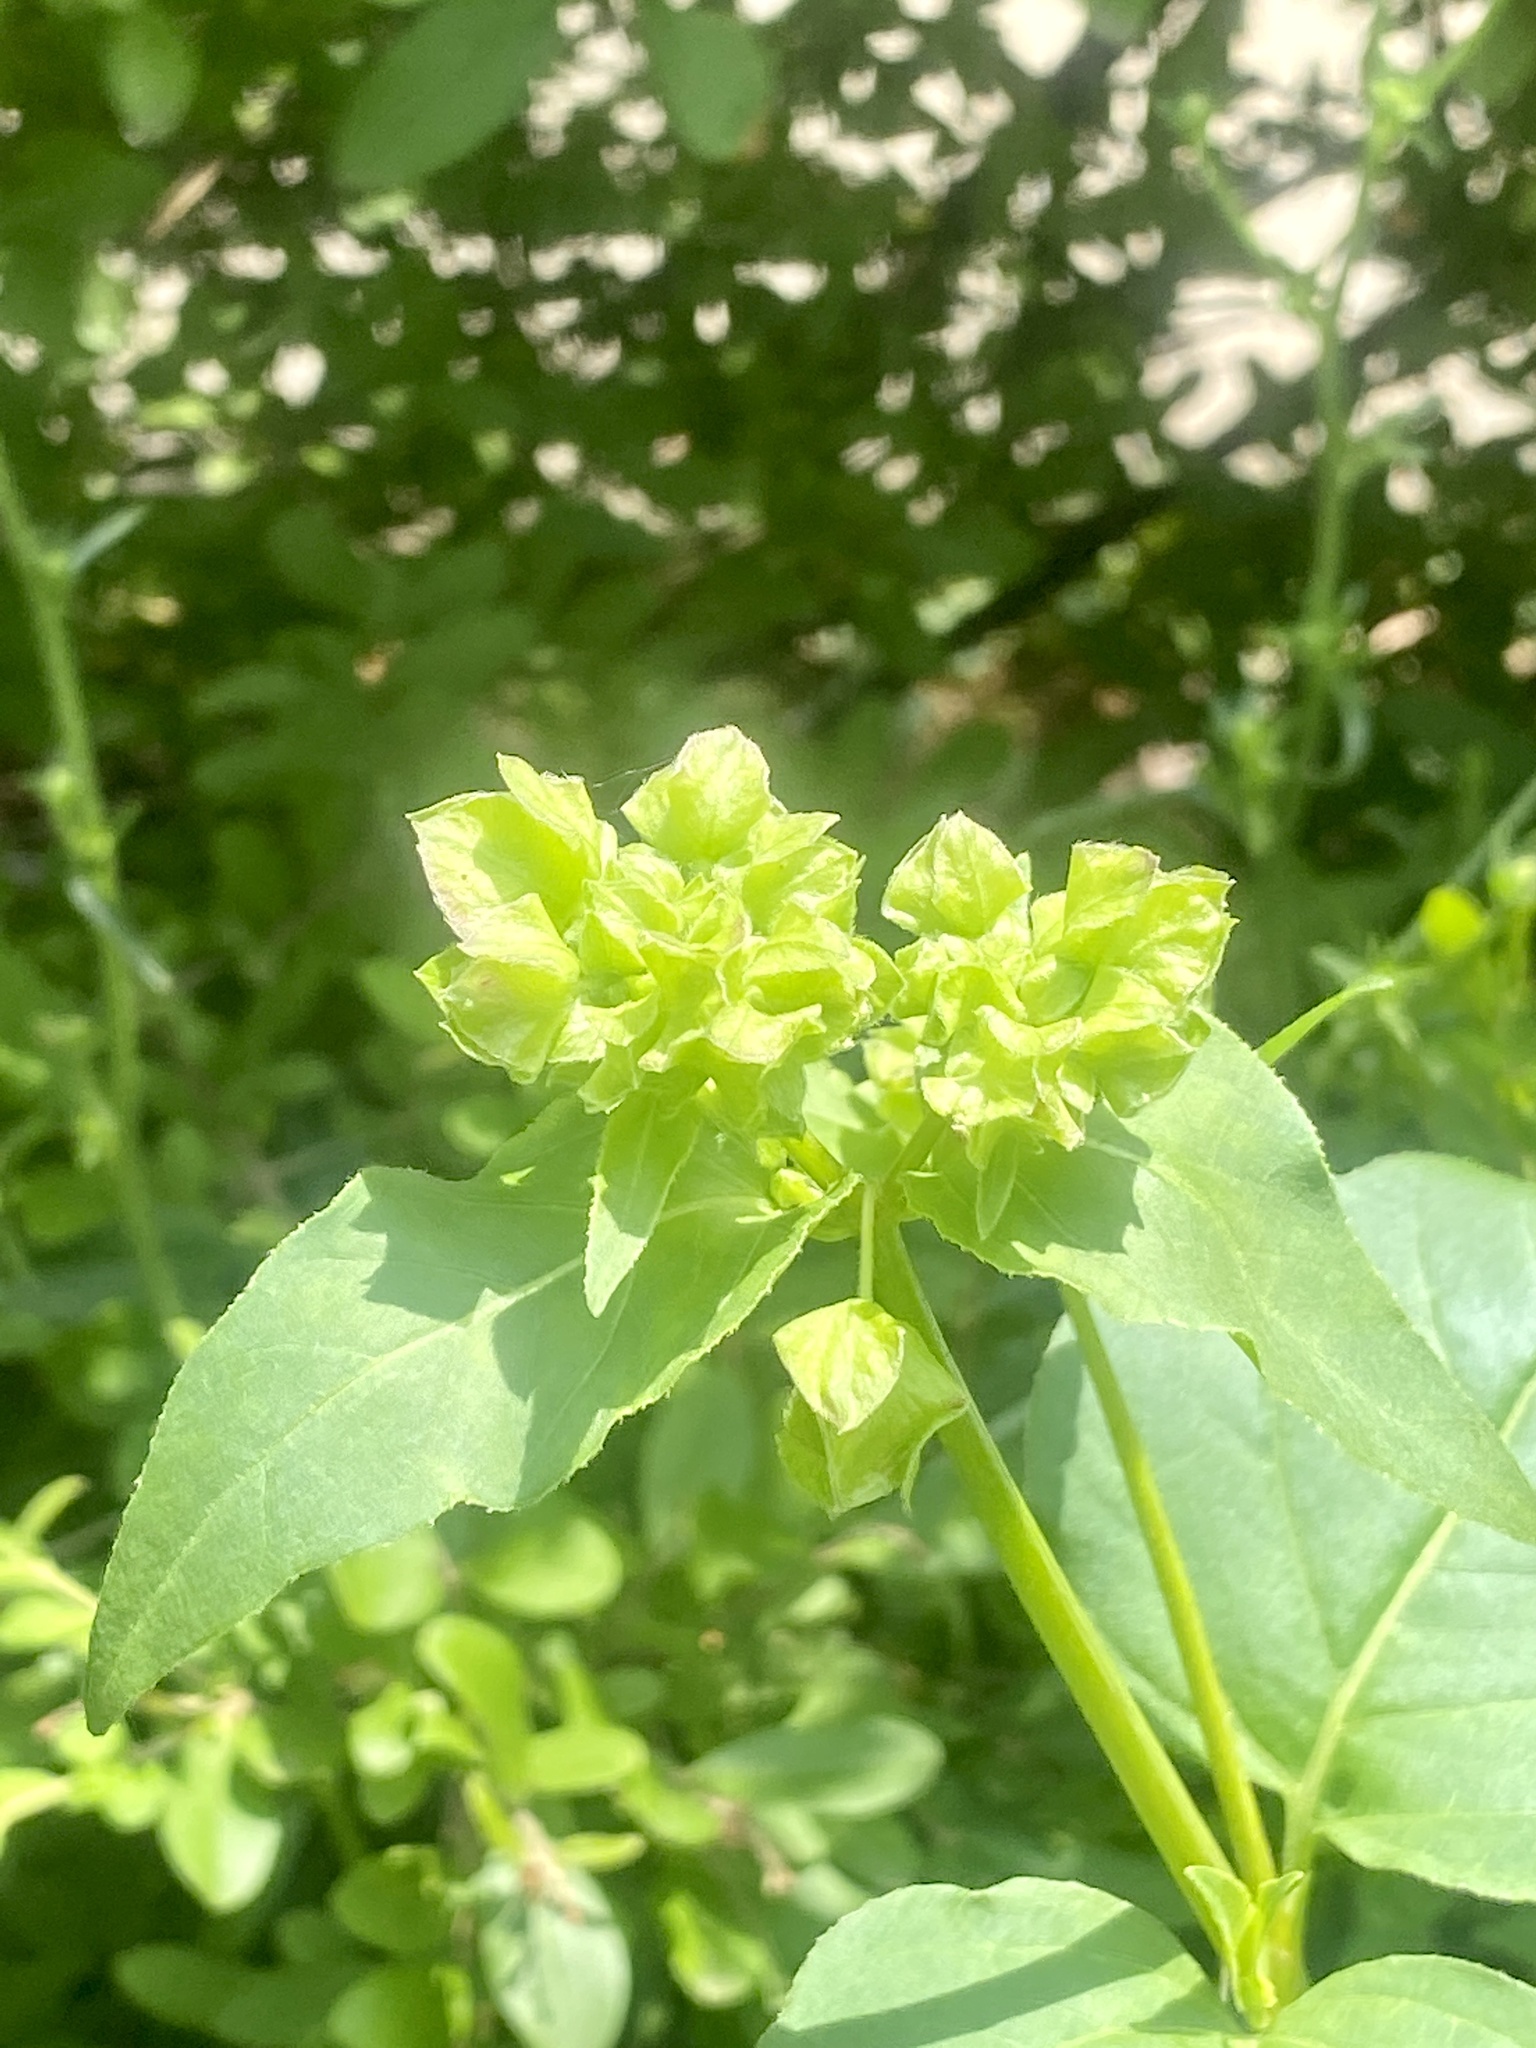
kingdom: Plantae
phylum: Tracheophyta
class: Magnoliopsida
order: Caryophyllales
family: Nyctaginaceae
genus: Mirabilis
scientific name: Mirabilis nyctaginea
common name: Umbrella wort
